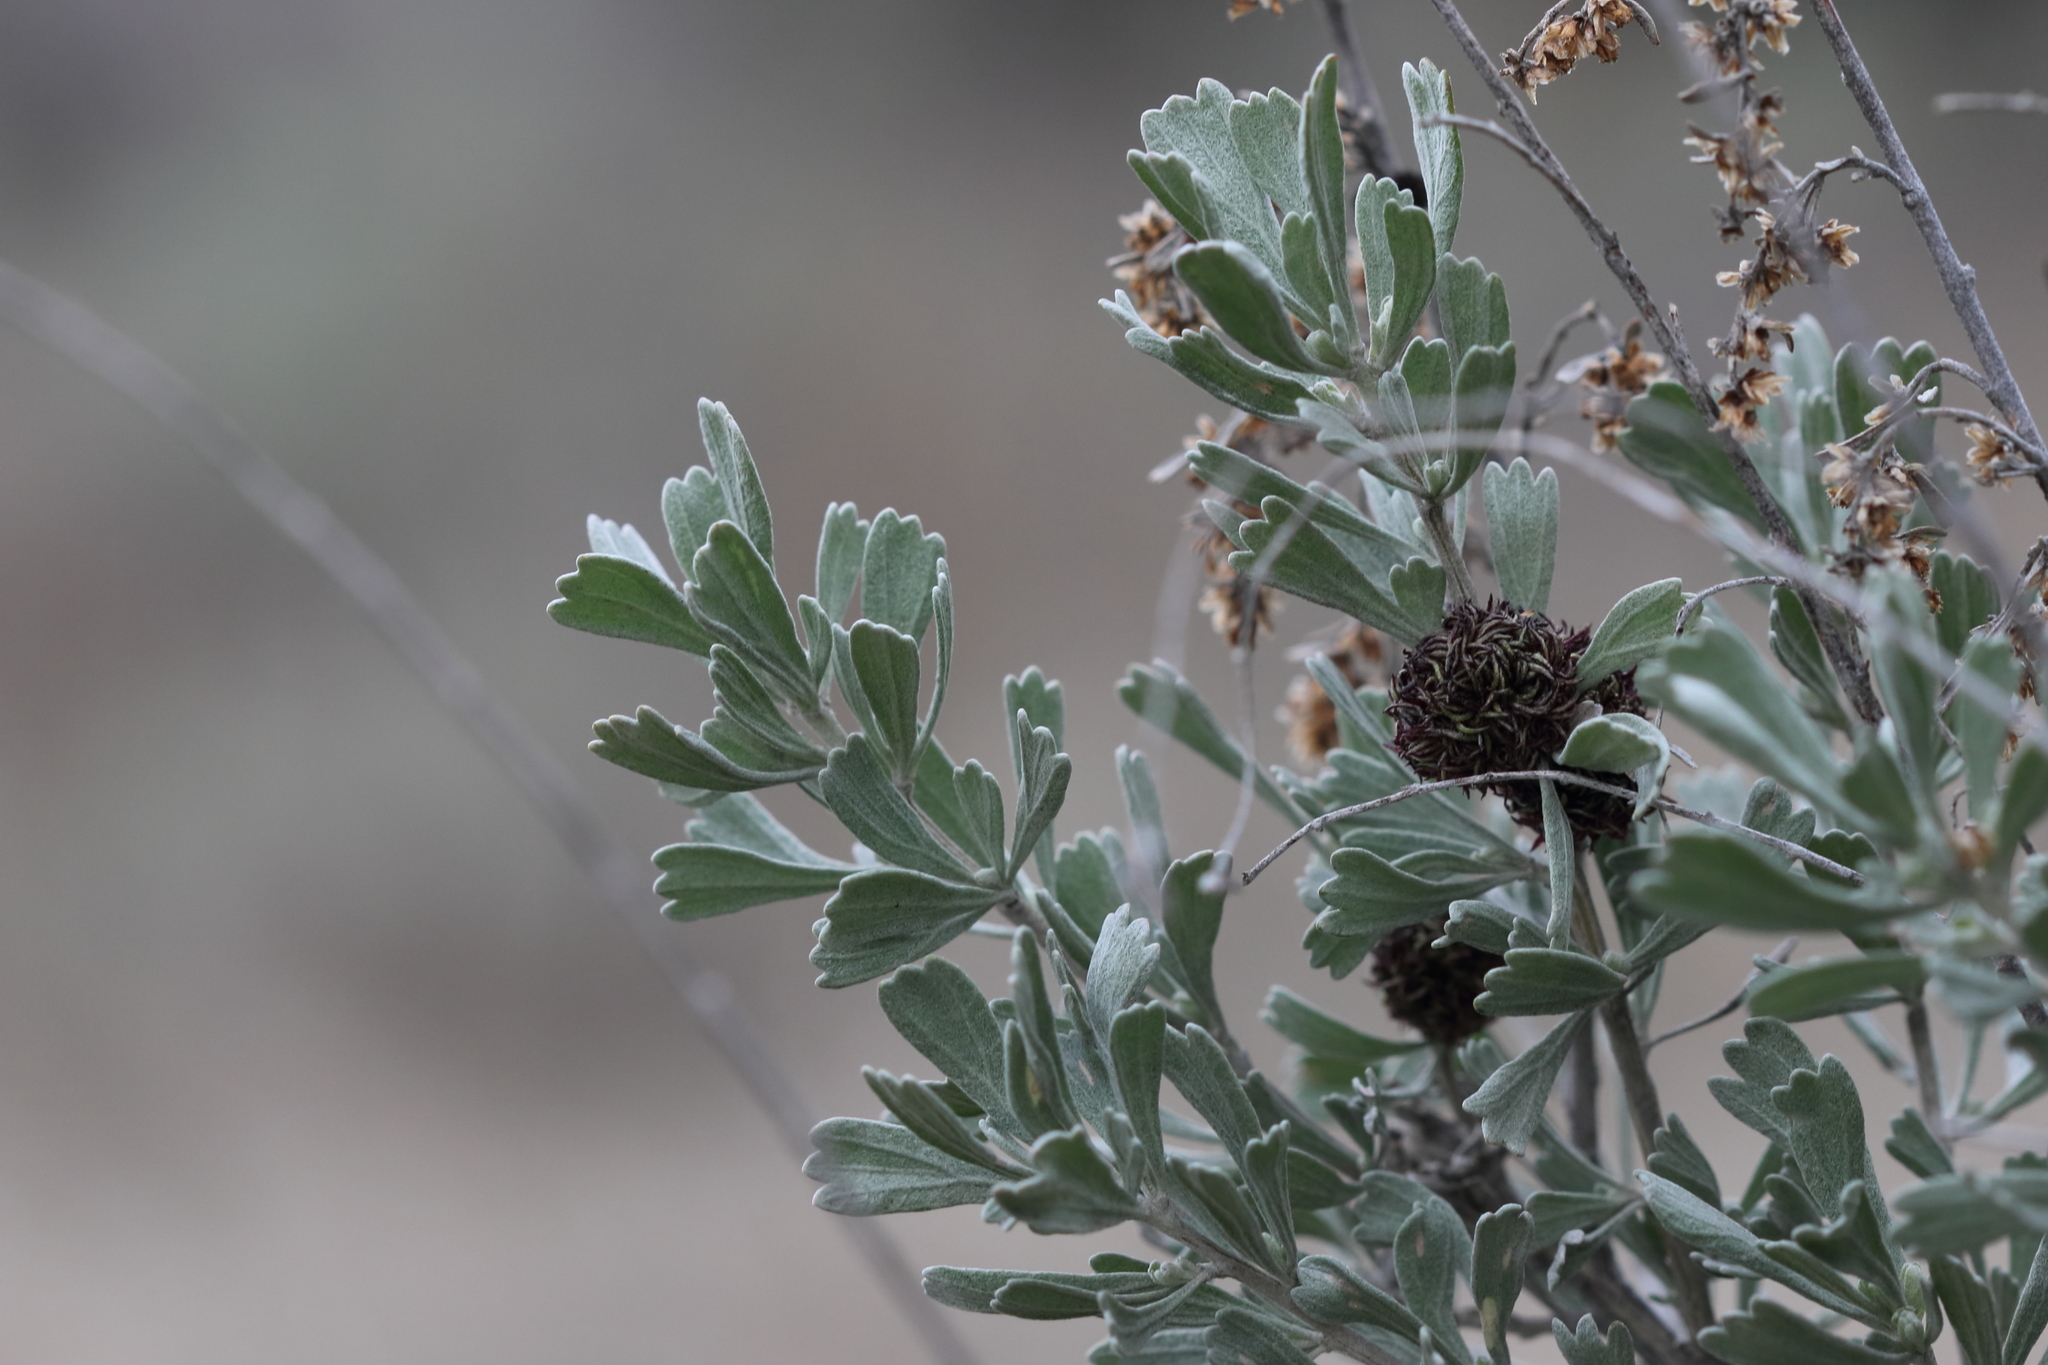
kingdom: Animalia
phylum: Arthropoda
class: Insecta
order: Diptera
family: Cecidomyiidae
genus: Rhopalomyia
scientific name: Rhopalomyia medusa
